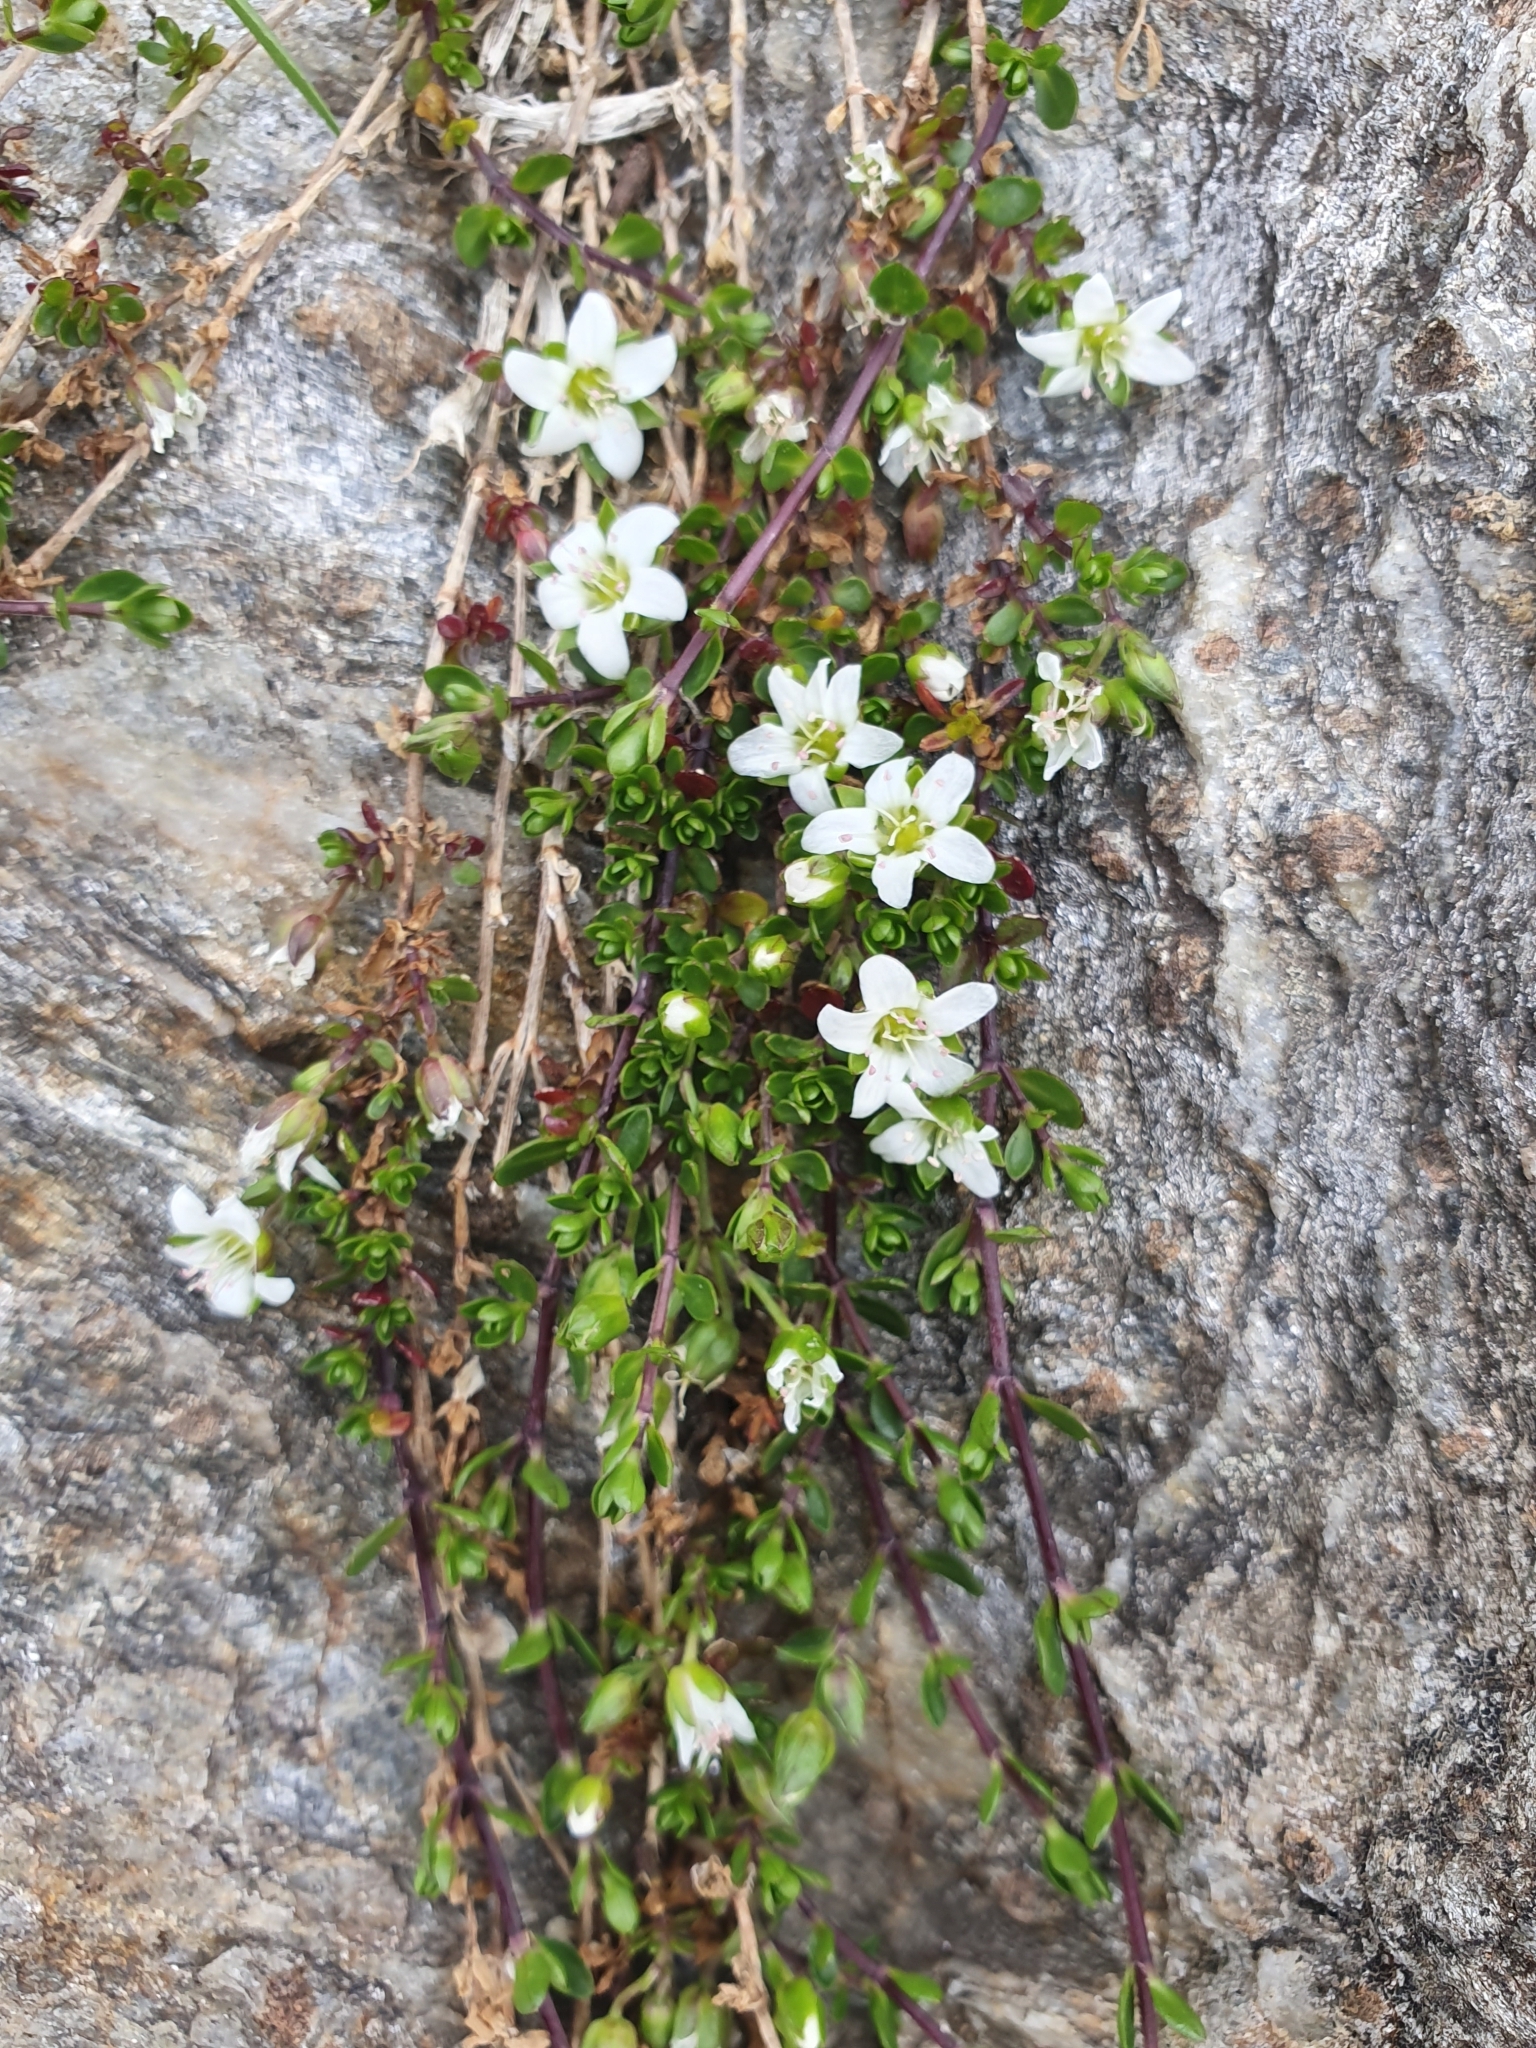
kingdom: Plantae
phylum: Tracheophyta
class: Magnoliopsida
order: Caryophyllales
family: Caryophyllaceae
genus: Arenaria
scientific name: Arenaria biflora
